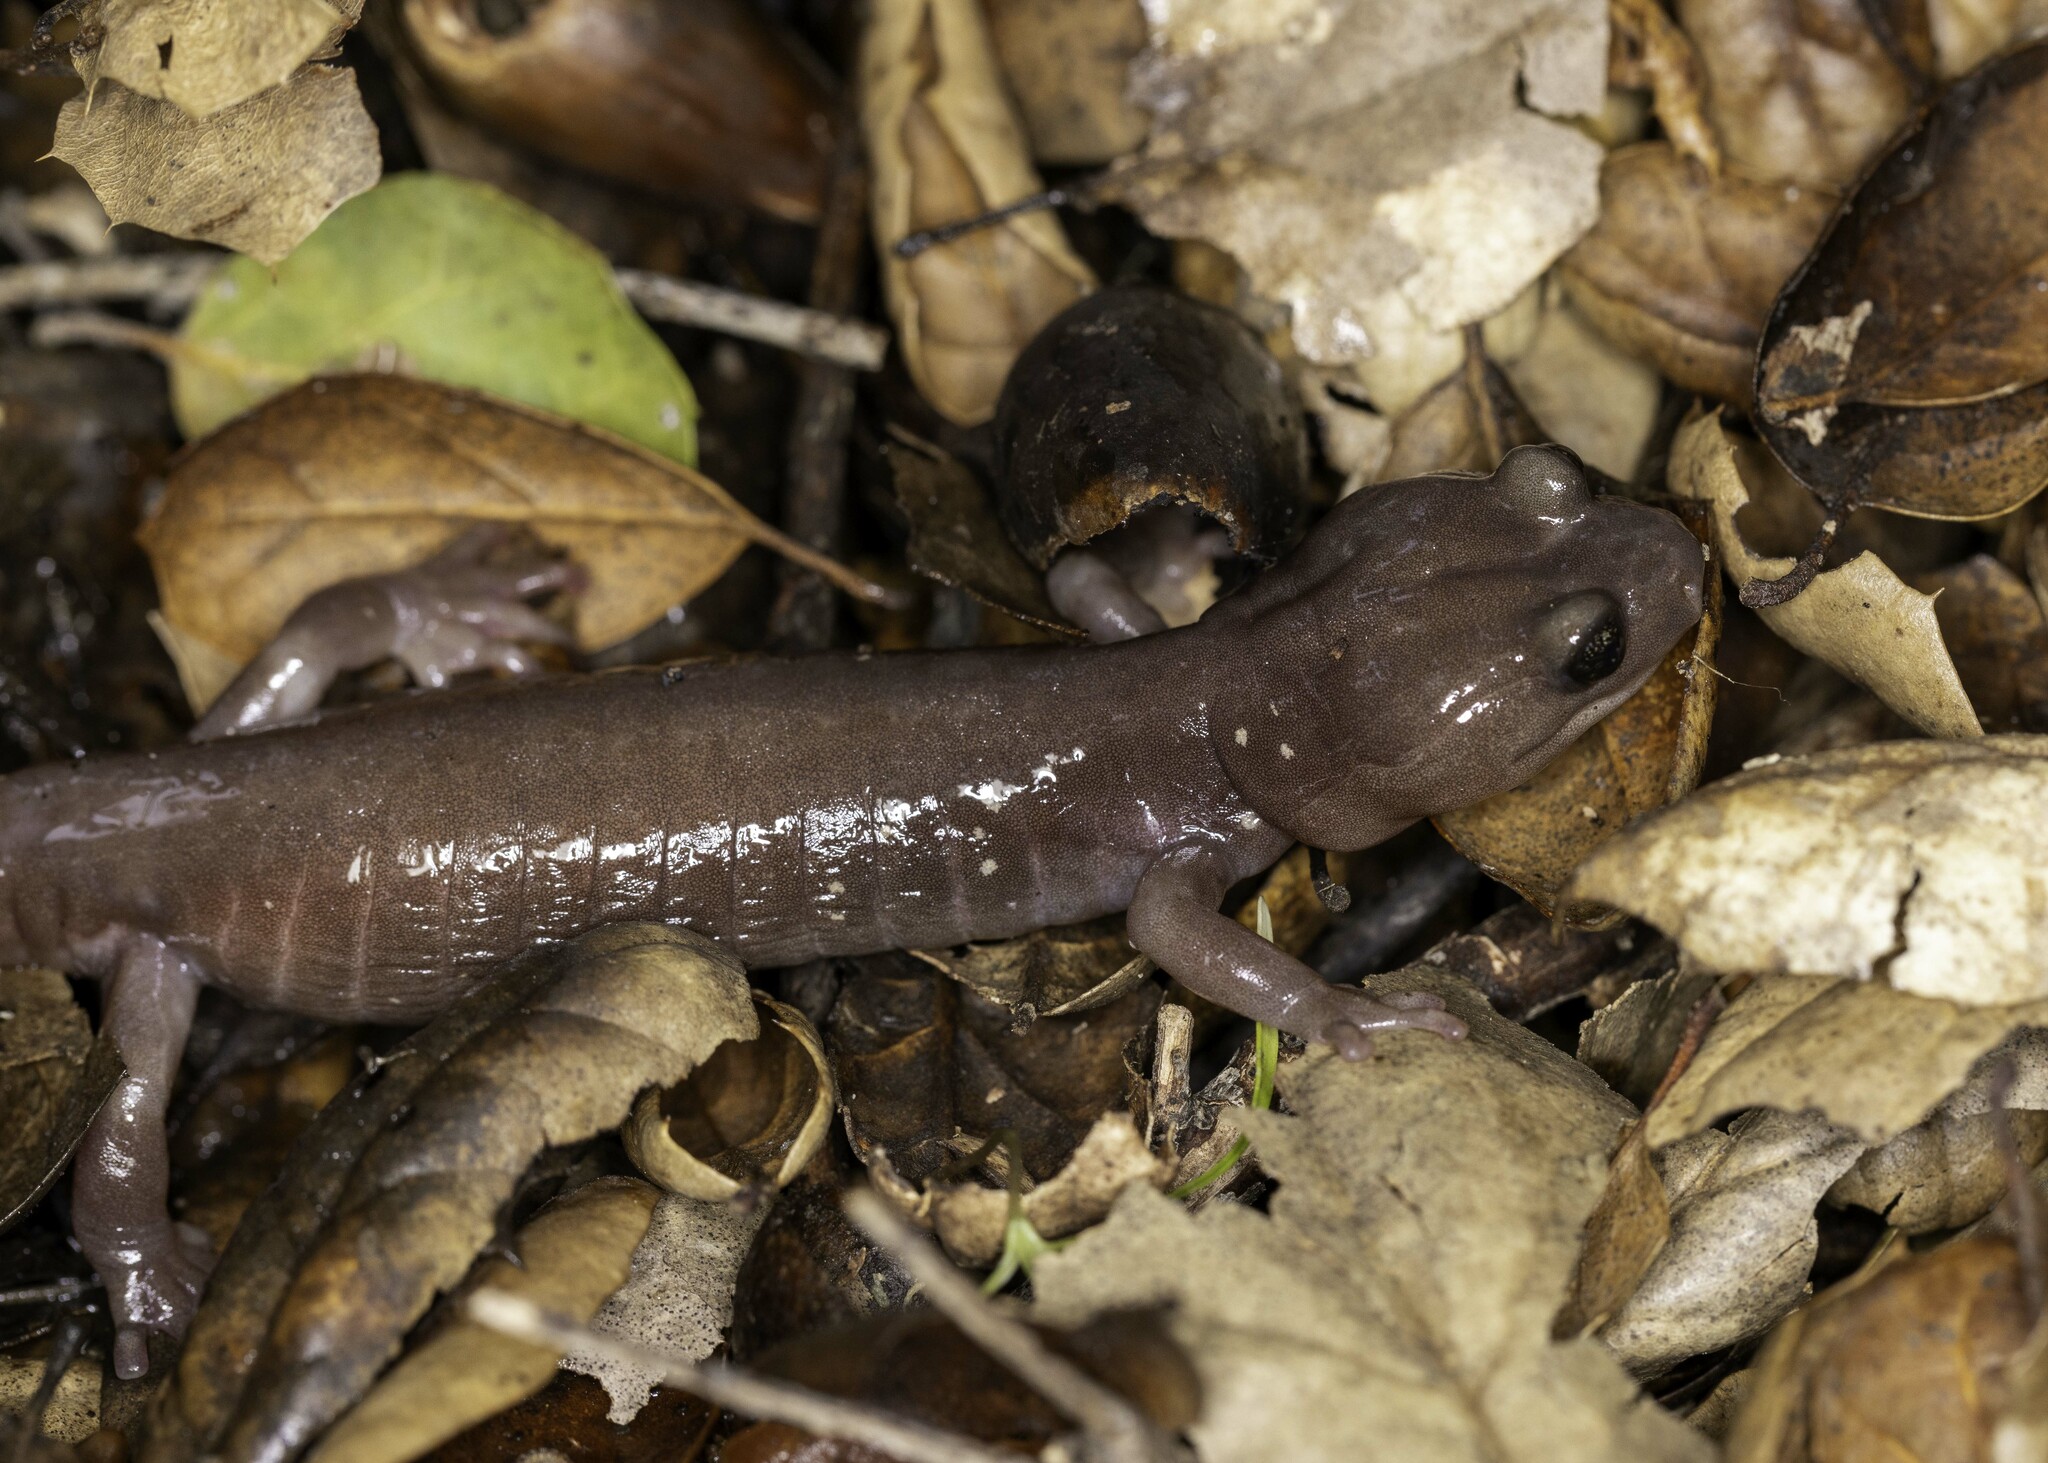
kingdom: Animalia
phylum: Chordata
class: Amphibia
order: Caudata
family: Plethodontidae
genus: Aneides
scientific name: Aneides lugubris
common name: Arboreal salamander
